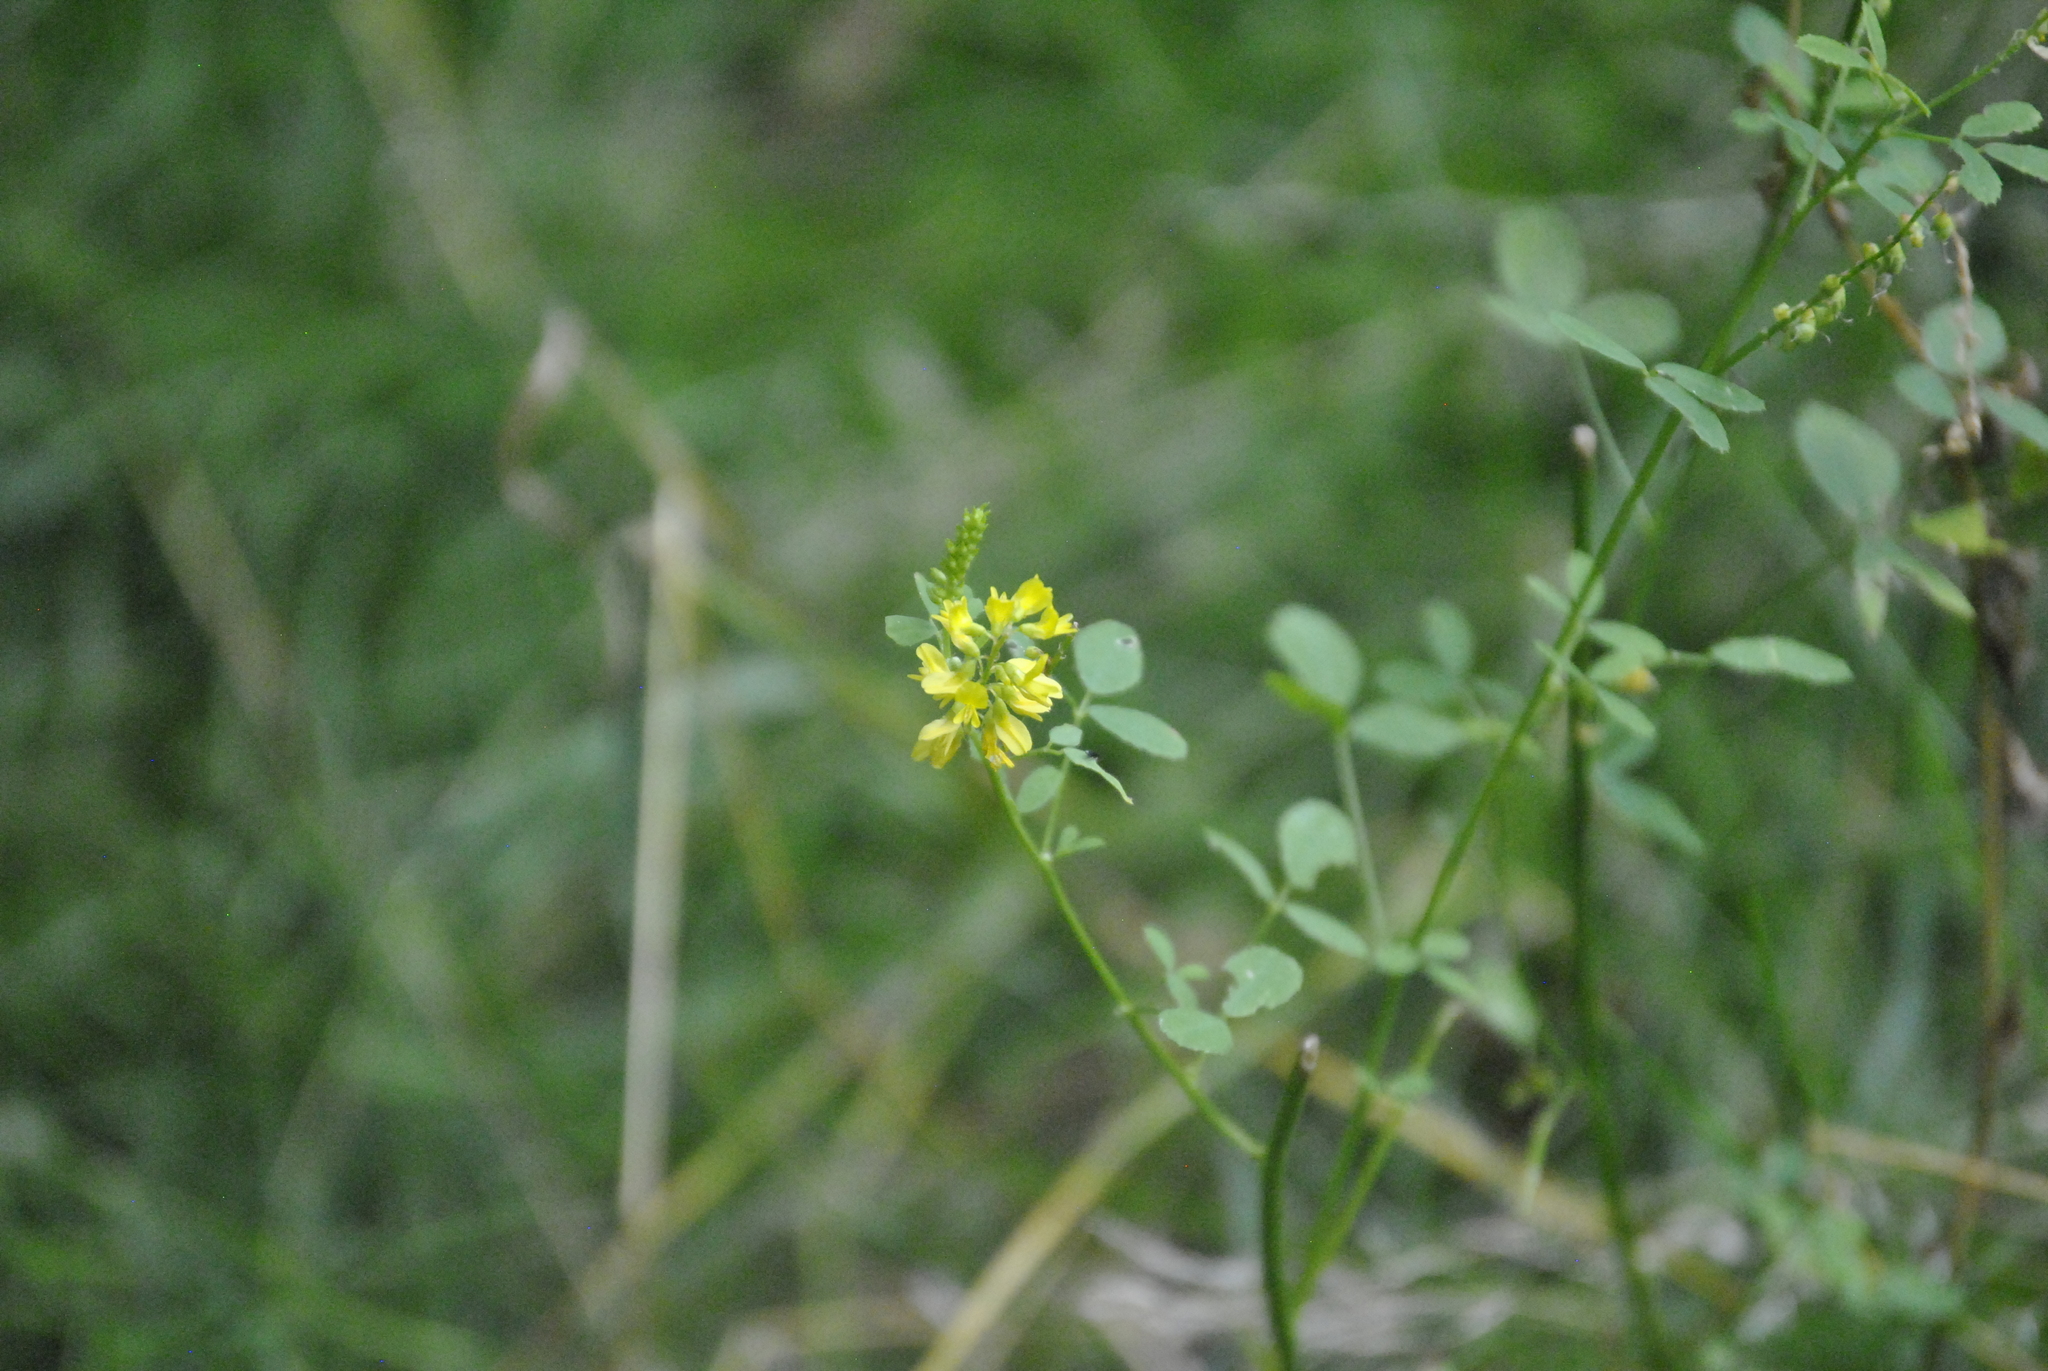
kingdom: Plantae
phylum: Tracheophyta
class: Magnoliopsida
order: Fabales
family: Fabaceae
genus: Melilotus
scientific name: Melilotus officinalis
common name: Sweetclover
